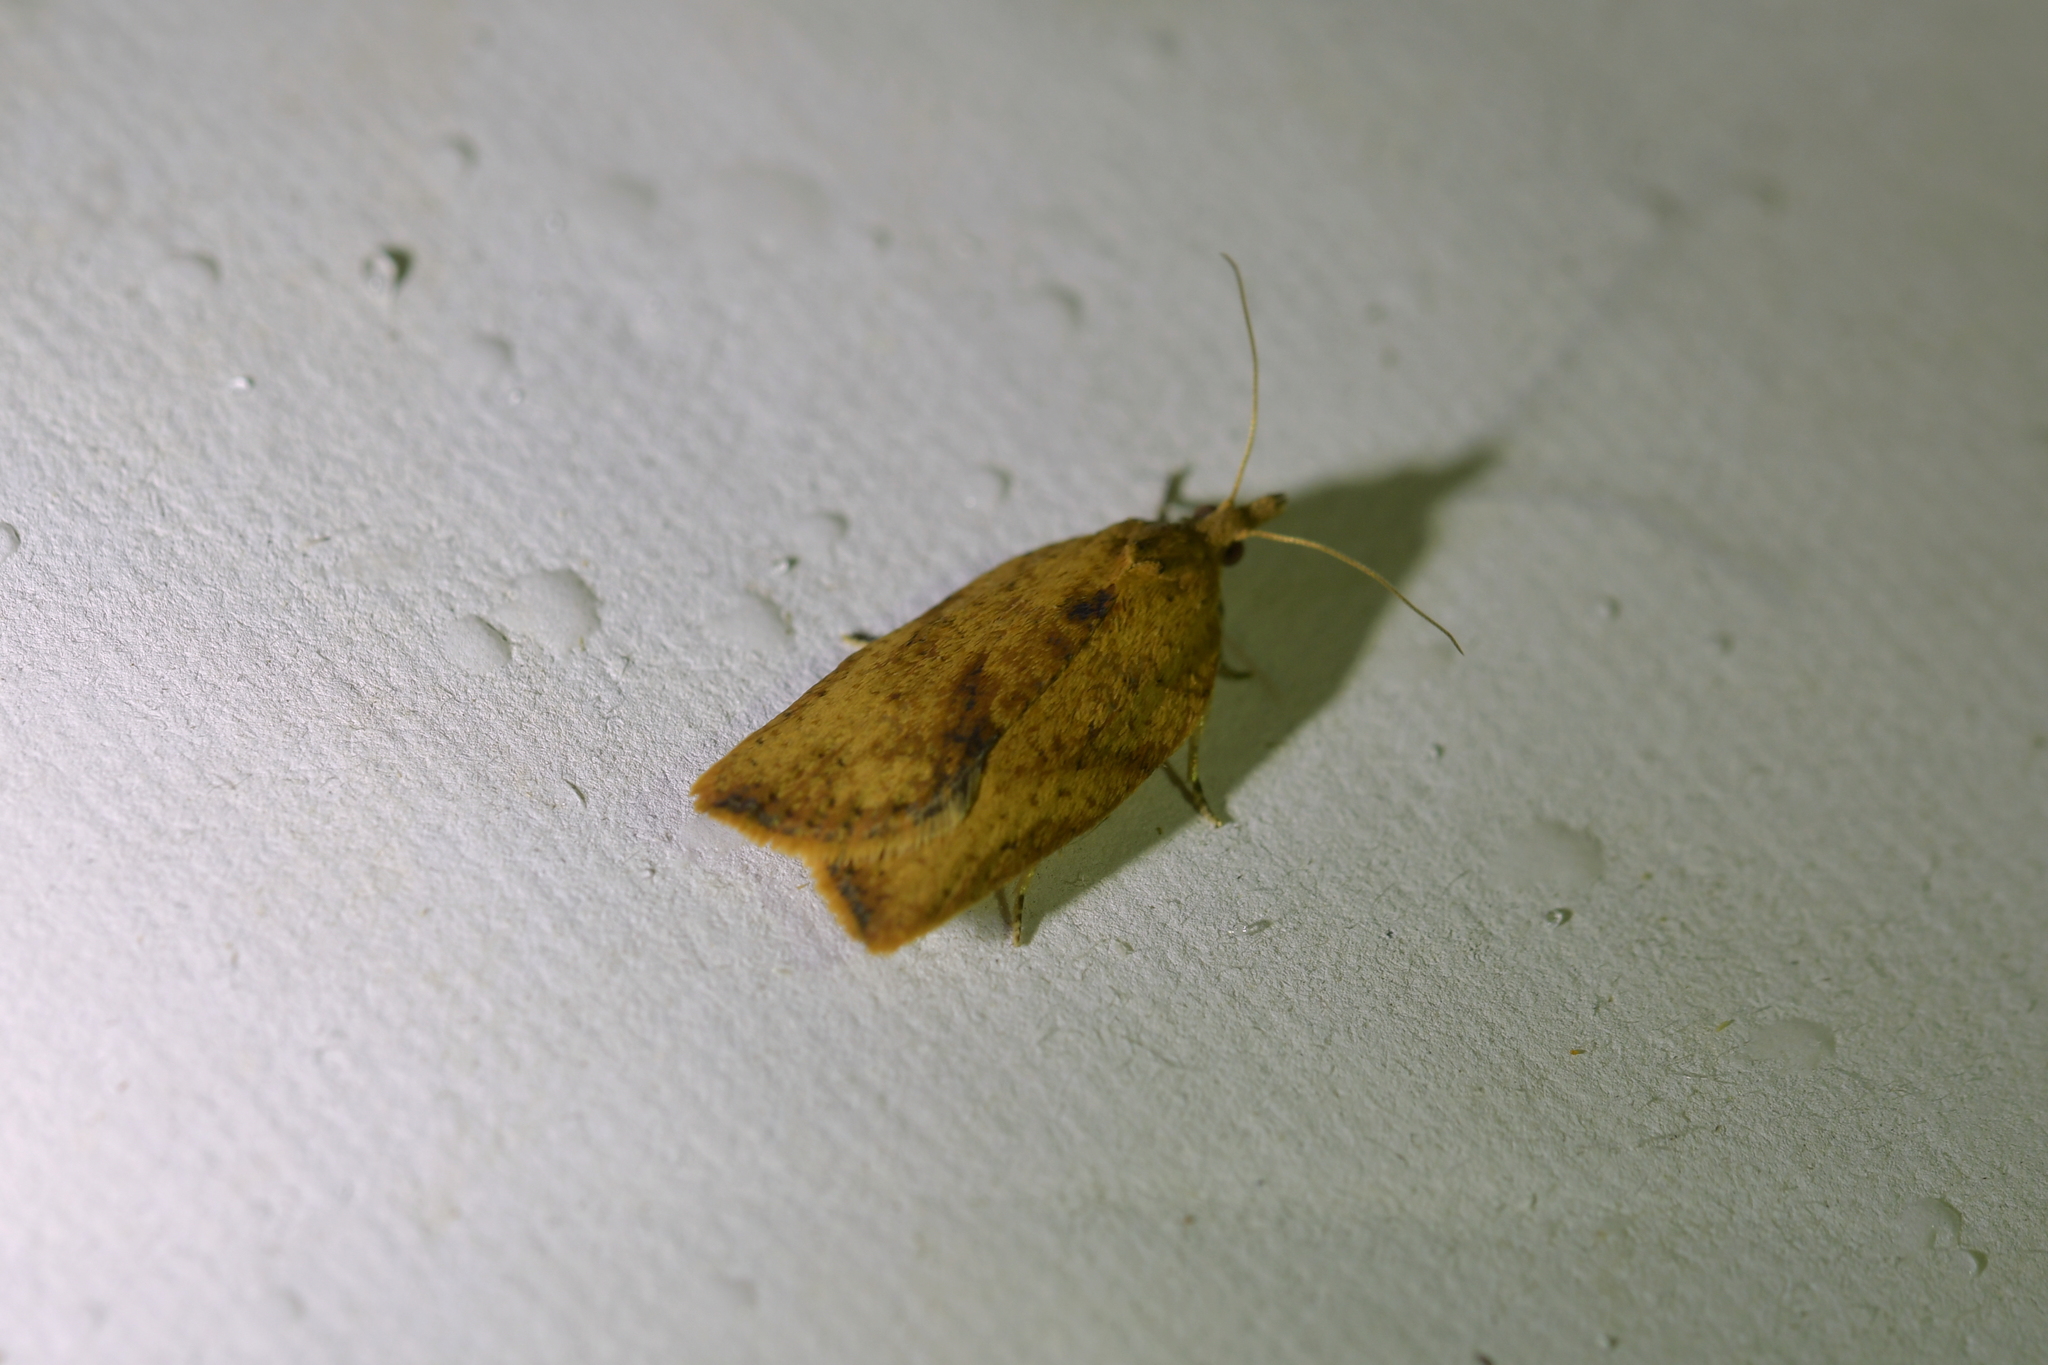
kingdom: Animalia
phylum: Arthropoda
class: Insecta
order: Lepidoptera
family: Tortricidae
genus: Epiphyas
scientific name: Epiphyas postvittana
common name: Light brown apple moth
